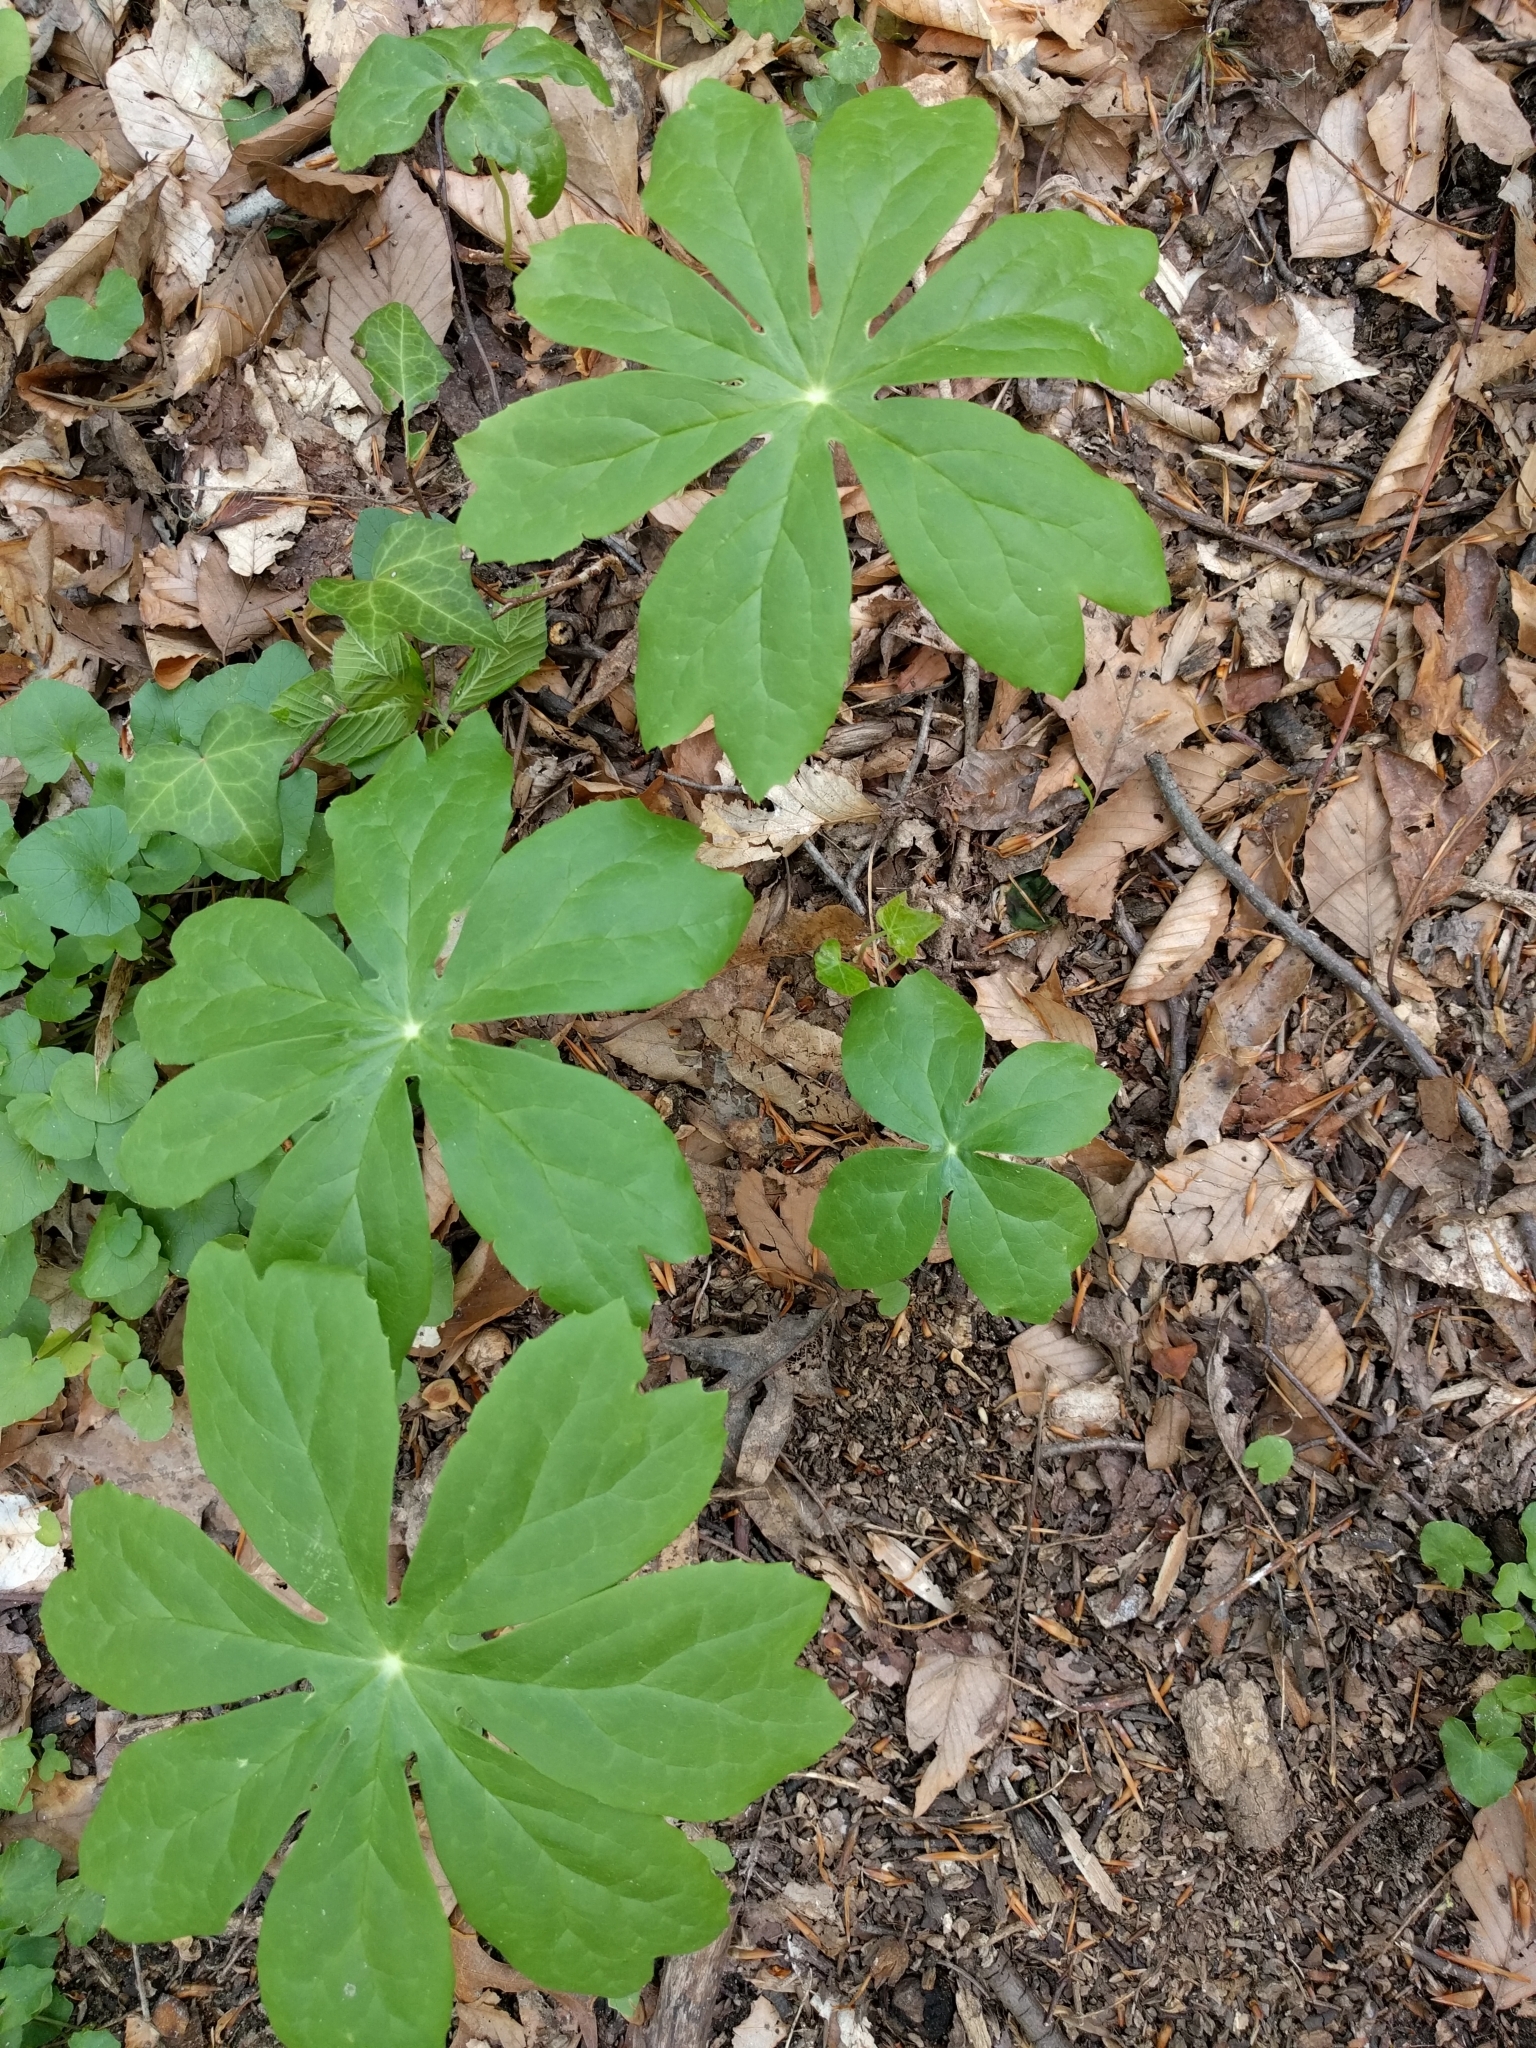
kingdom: Plantae
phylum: Tracheophyta
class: Magnoliopsida
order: Ranunculales
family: Berberidaceae
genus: Podophyllum
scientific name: Podophyllum peltatum
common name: Wild mandrake
